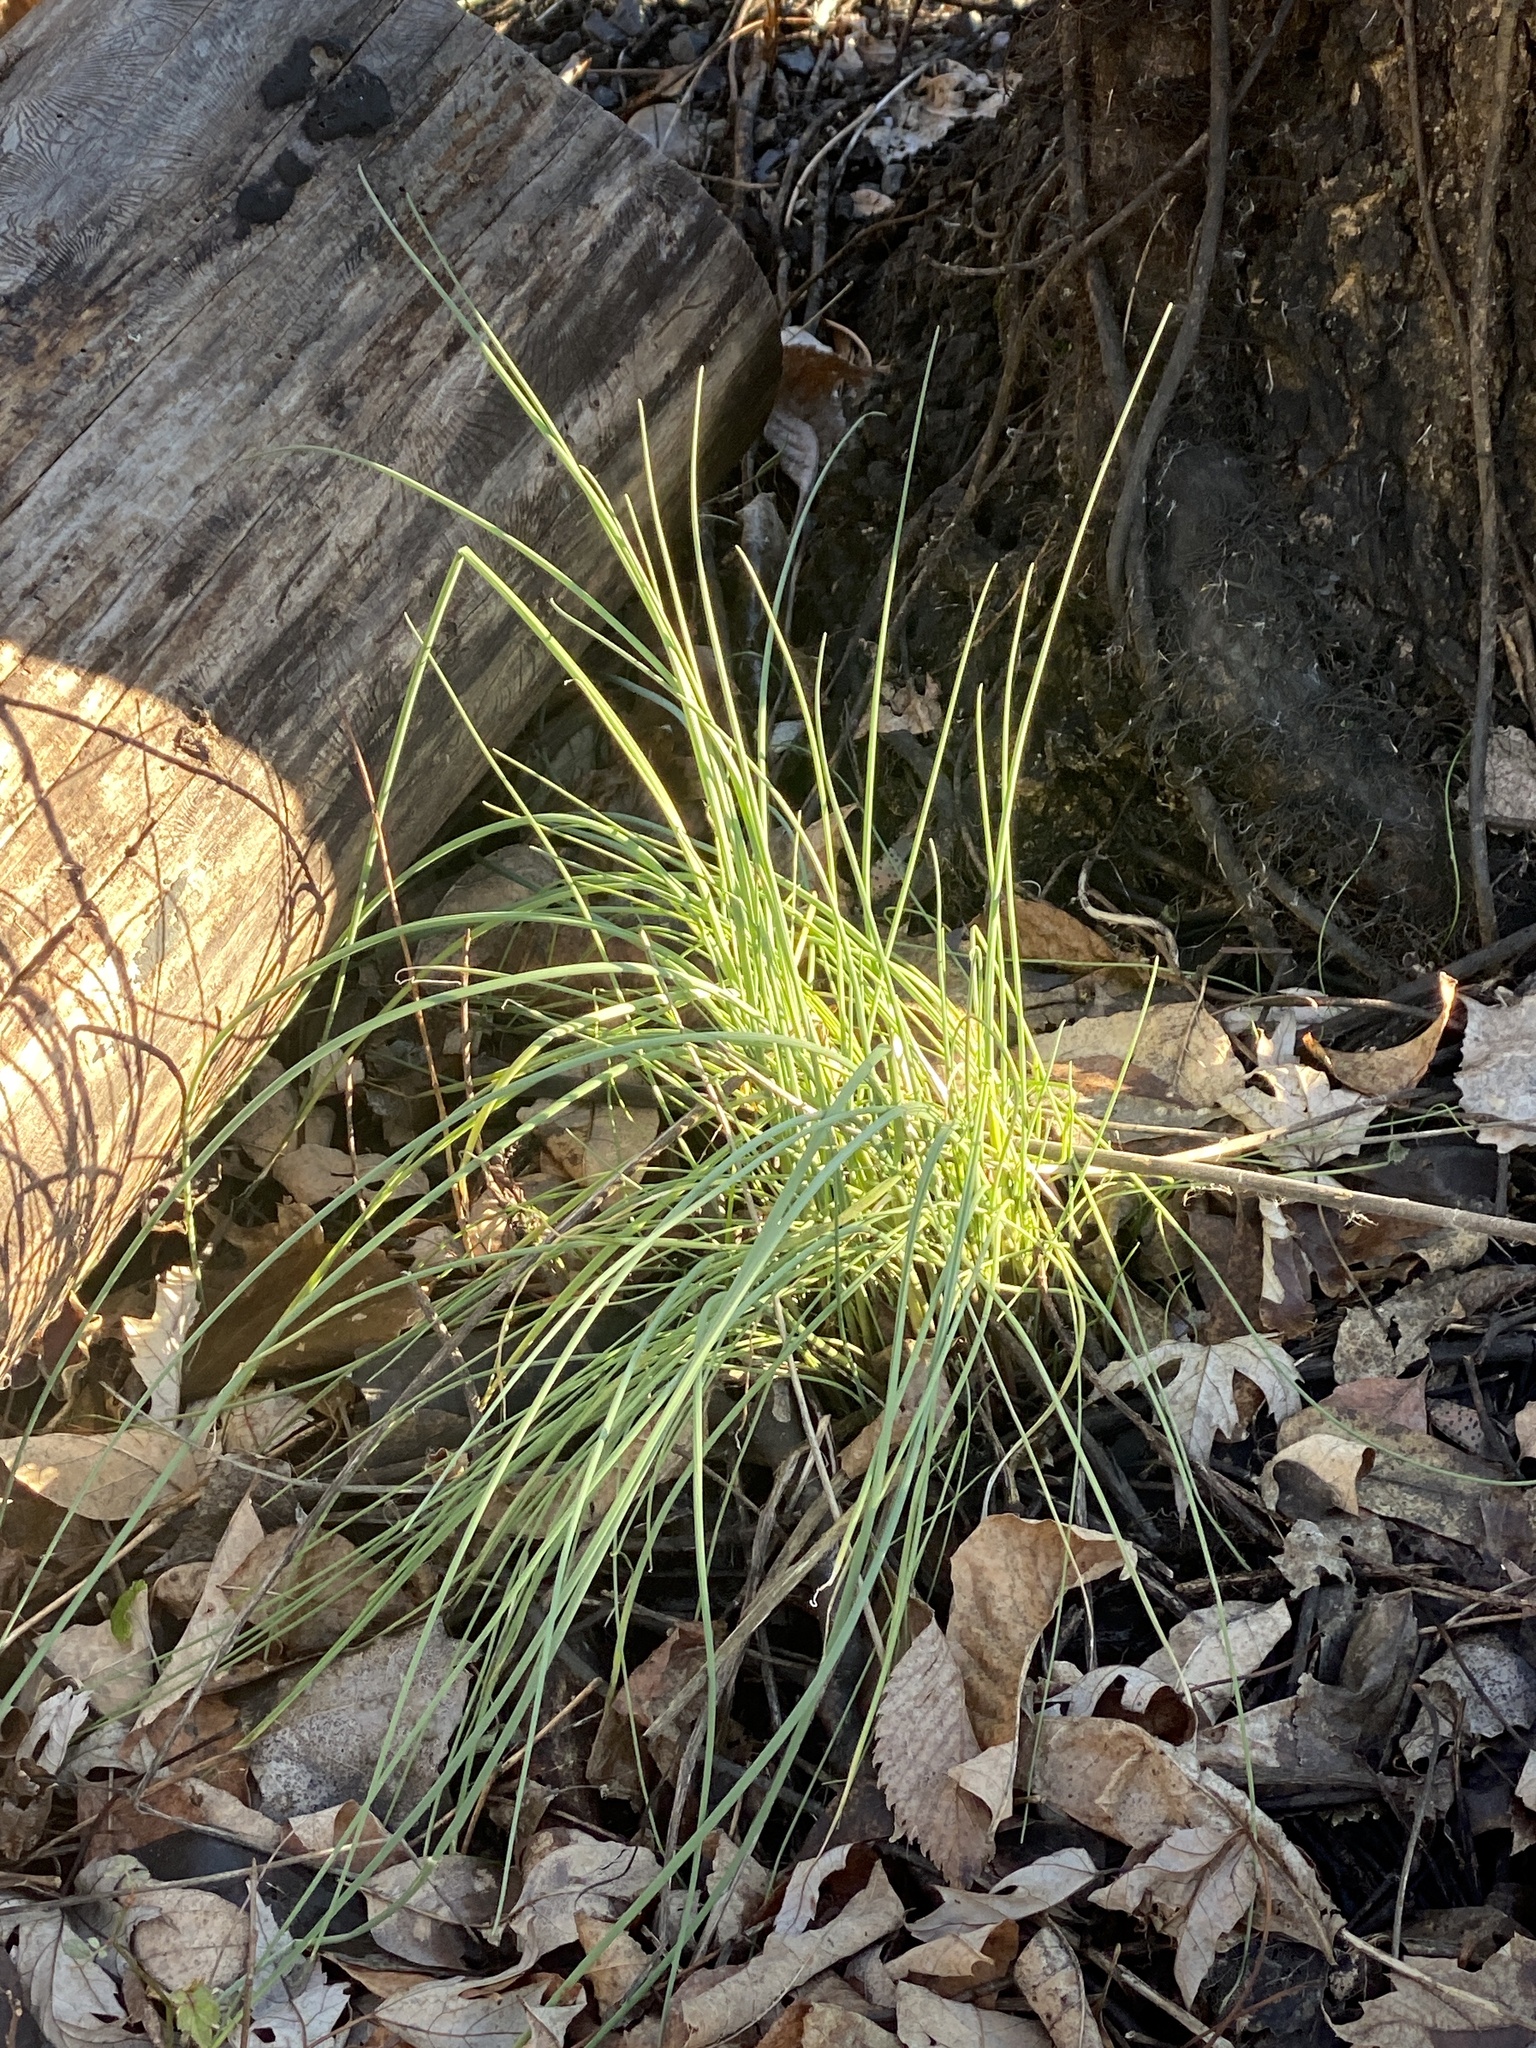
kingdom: Plantae
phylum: Tracheophyta
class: Liliopsida
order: Asparagales
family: Amaryllidaceae
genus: Allium
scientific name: Allium vineale
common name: Crow garlic
